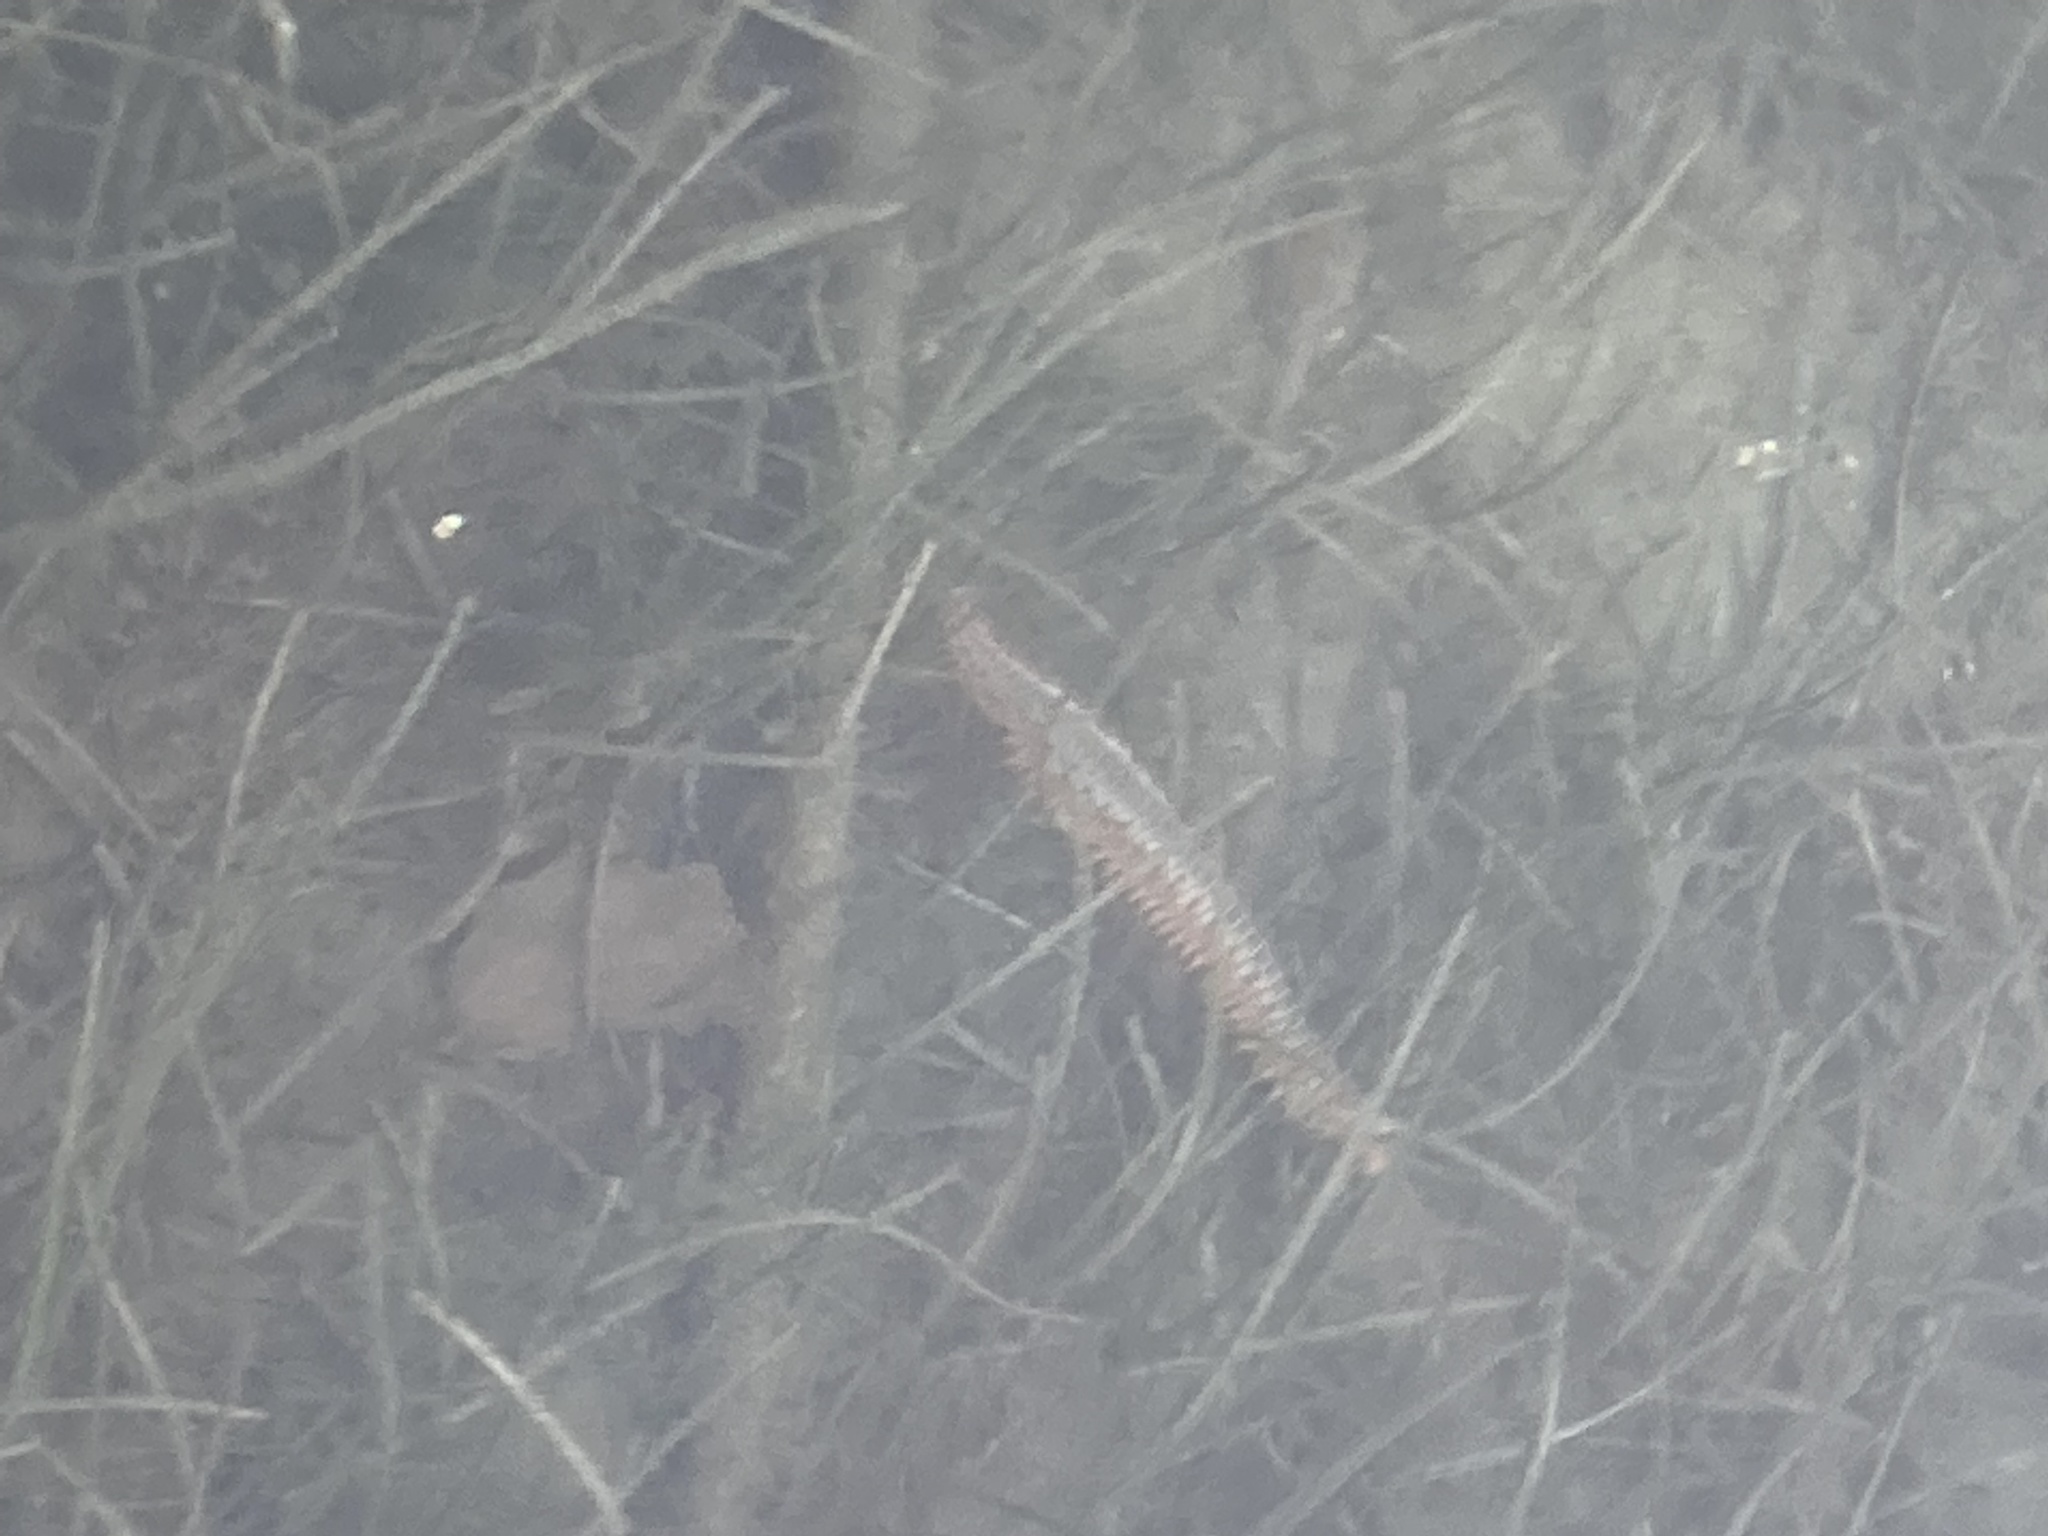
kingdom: Animalia
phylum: Annelida
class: Polychaeta
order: Amphinomida
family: Amphinomidae
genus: Hermodice
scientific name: Hermodice carunculata
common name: Bearded fireworm
